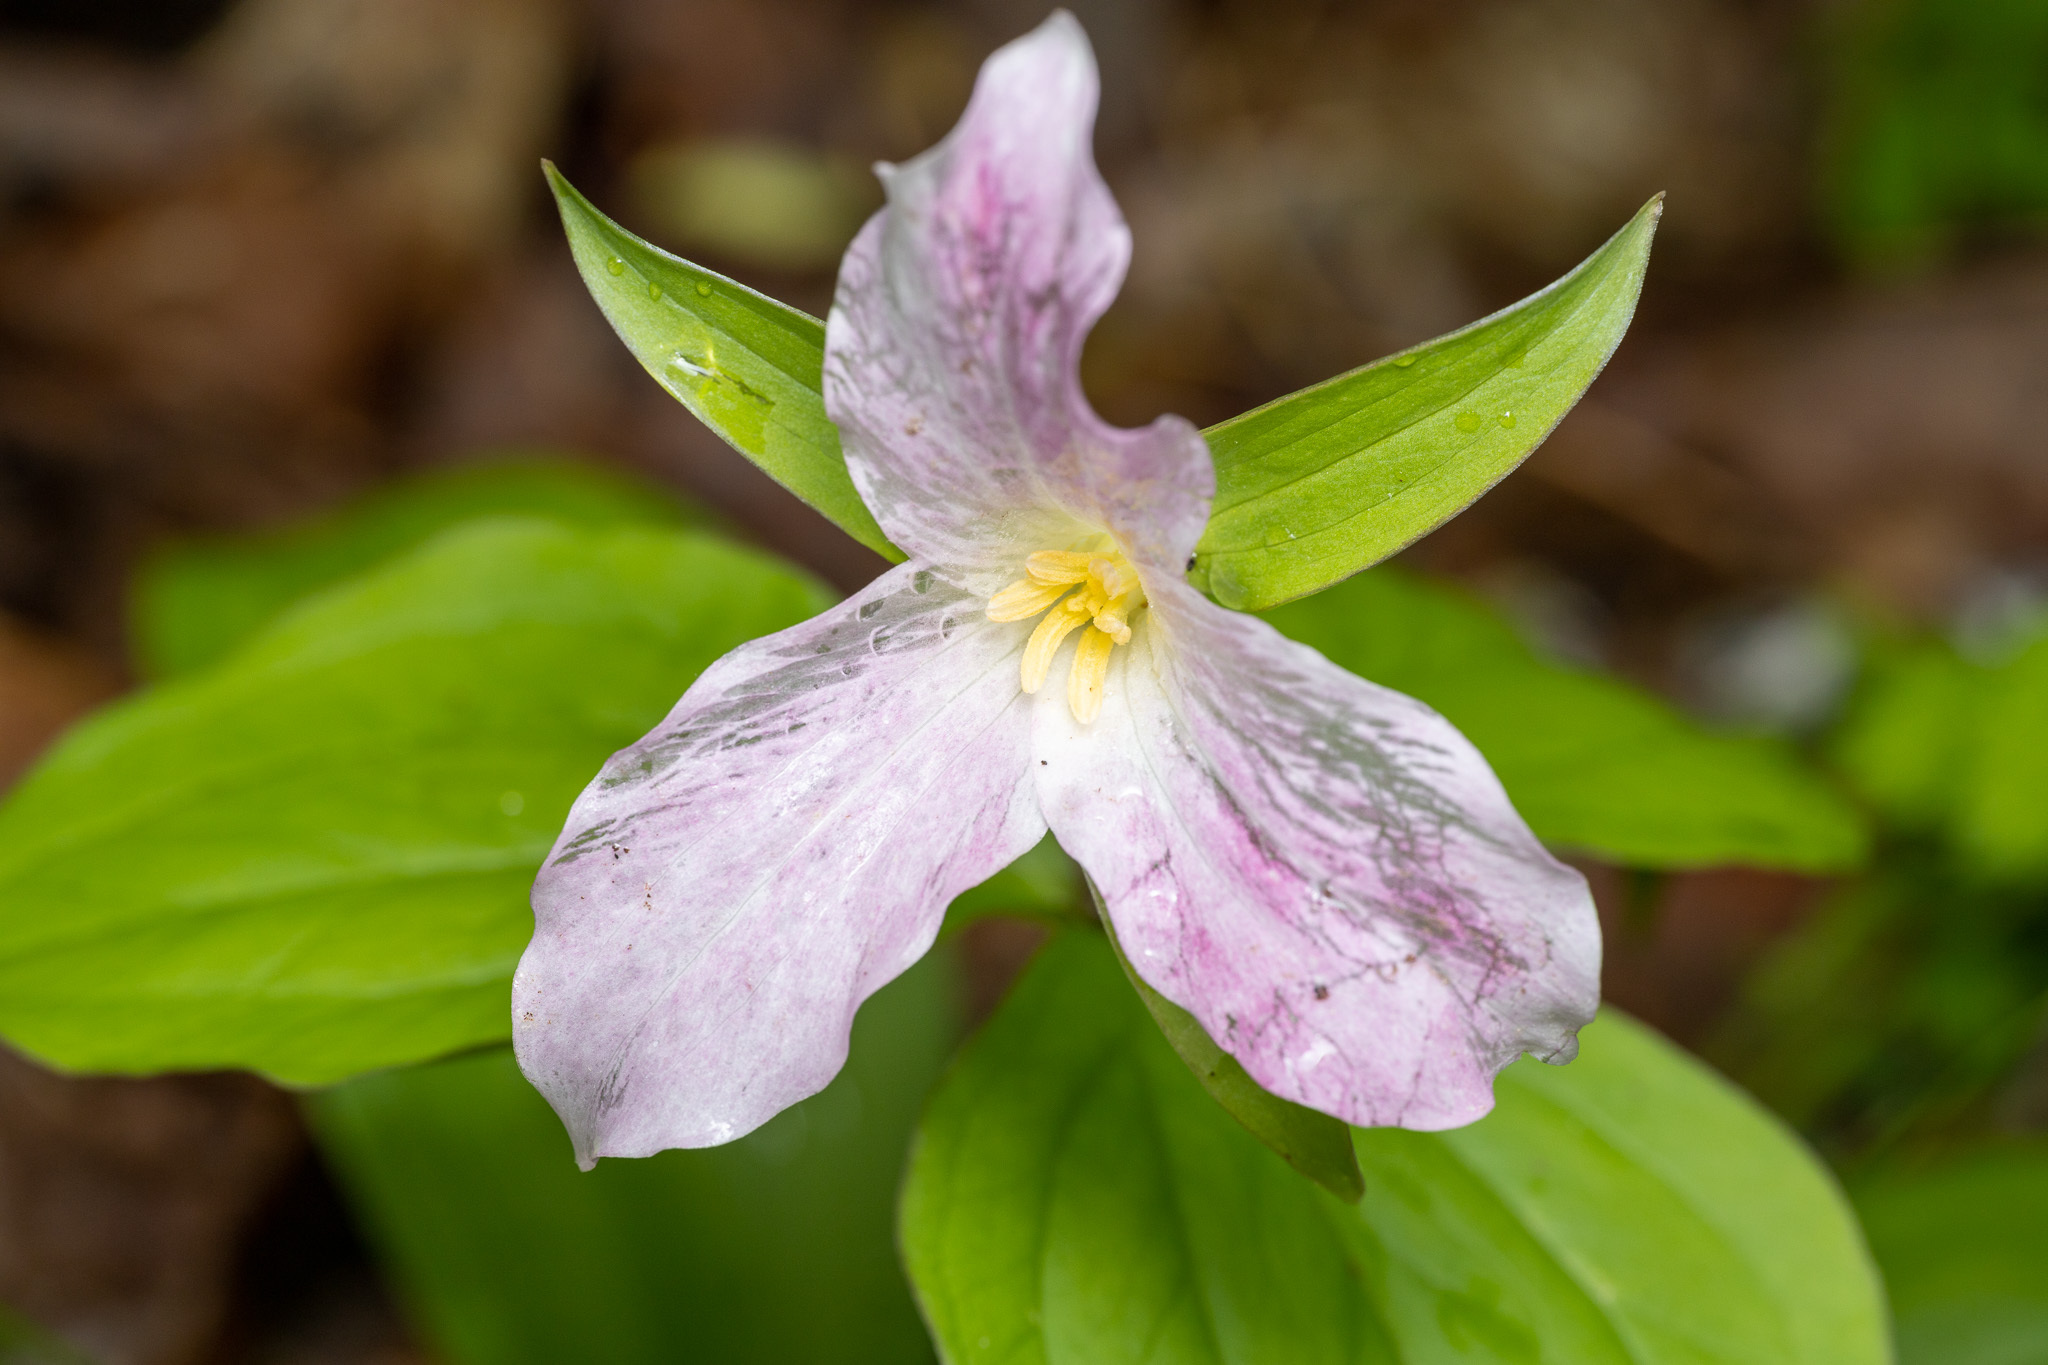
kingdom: Plantae
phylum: Tracheophyta
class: Liliopsida
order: Liliales
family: Melanthiaceae
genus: Trillium
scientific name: Trillium grandiflorum
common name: Great white trillium
